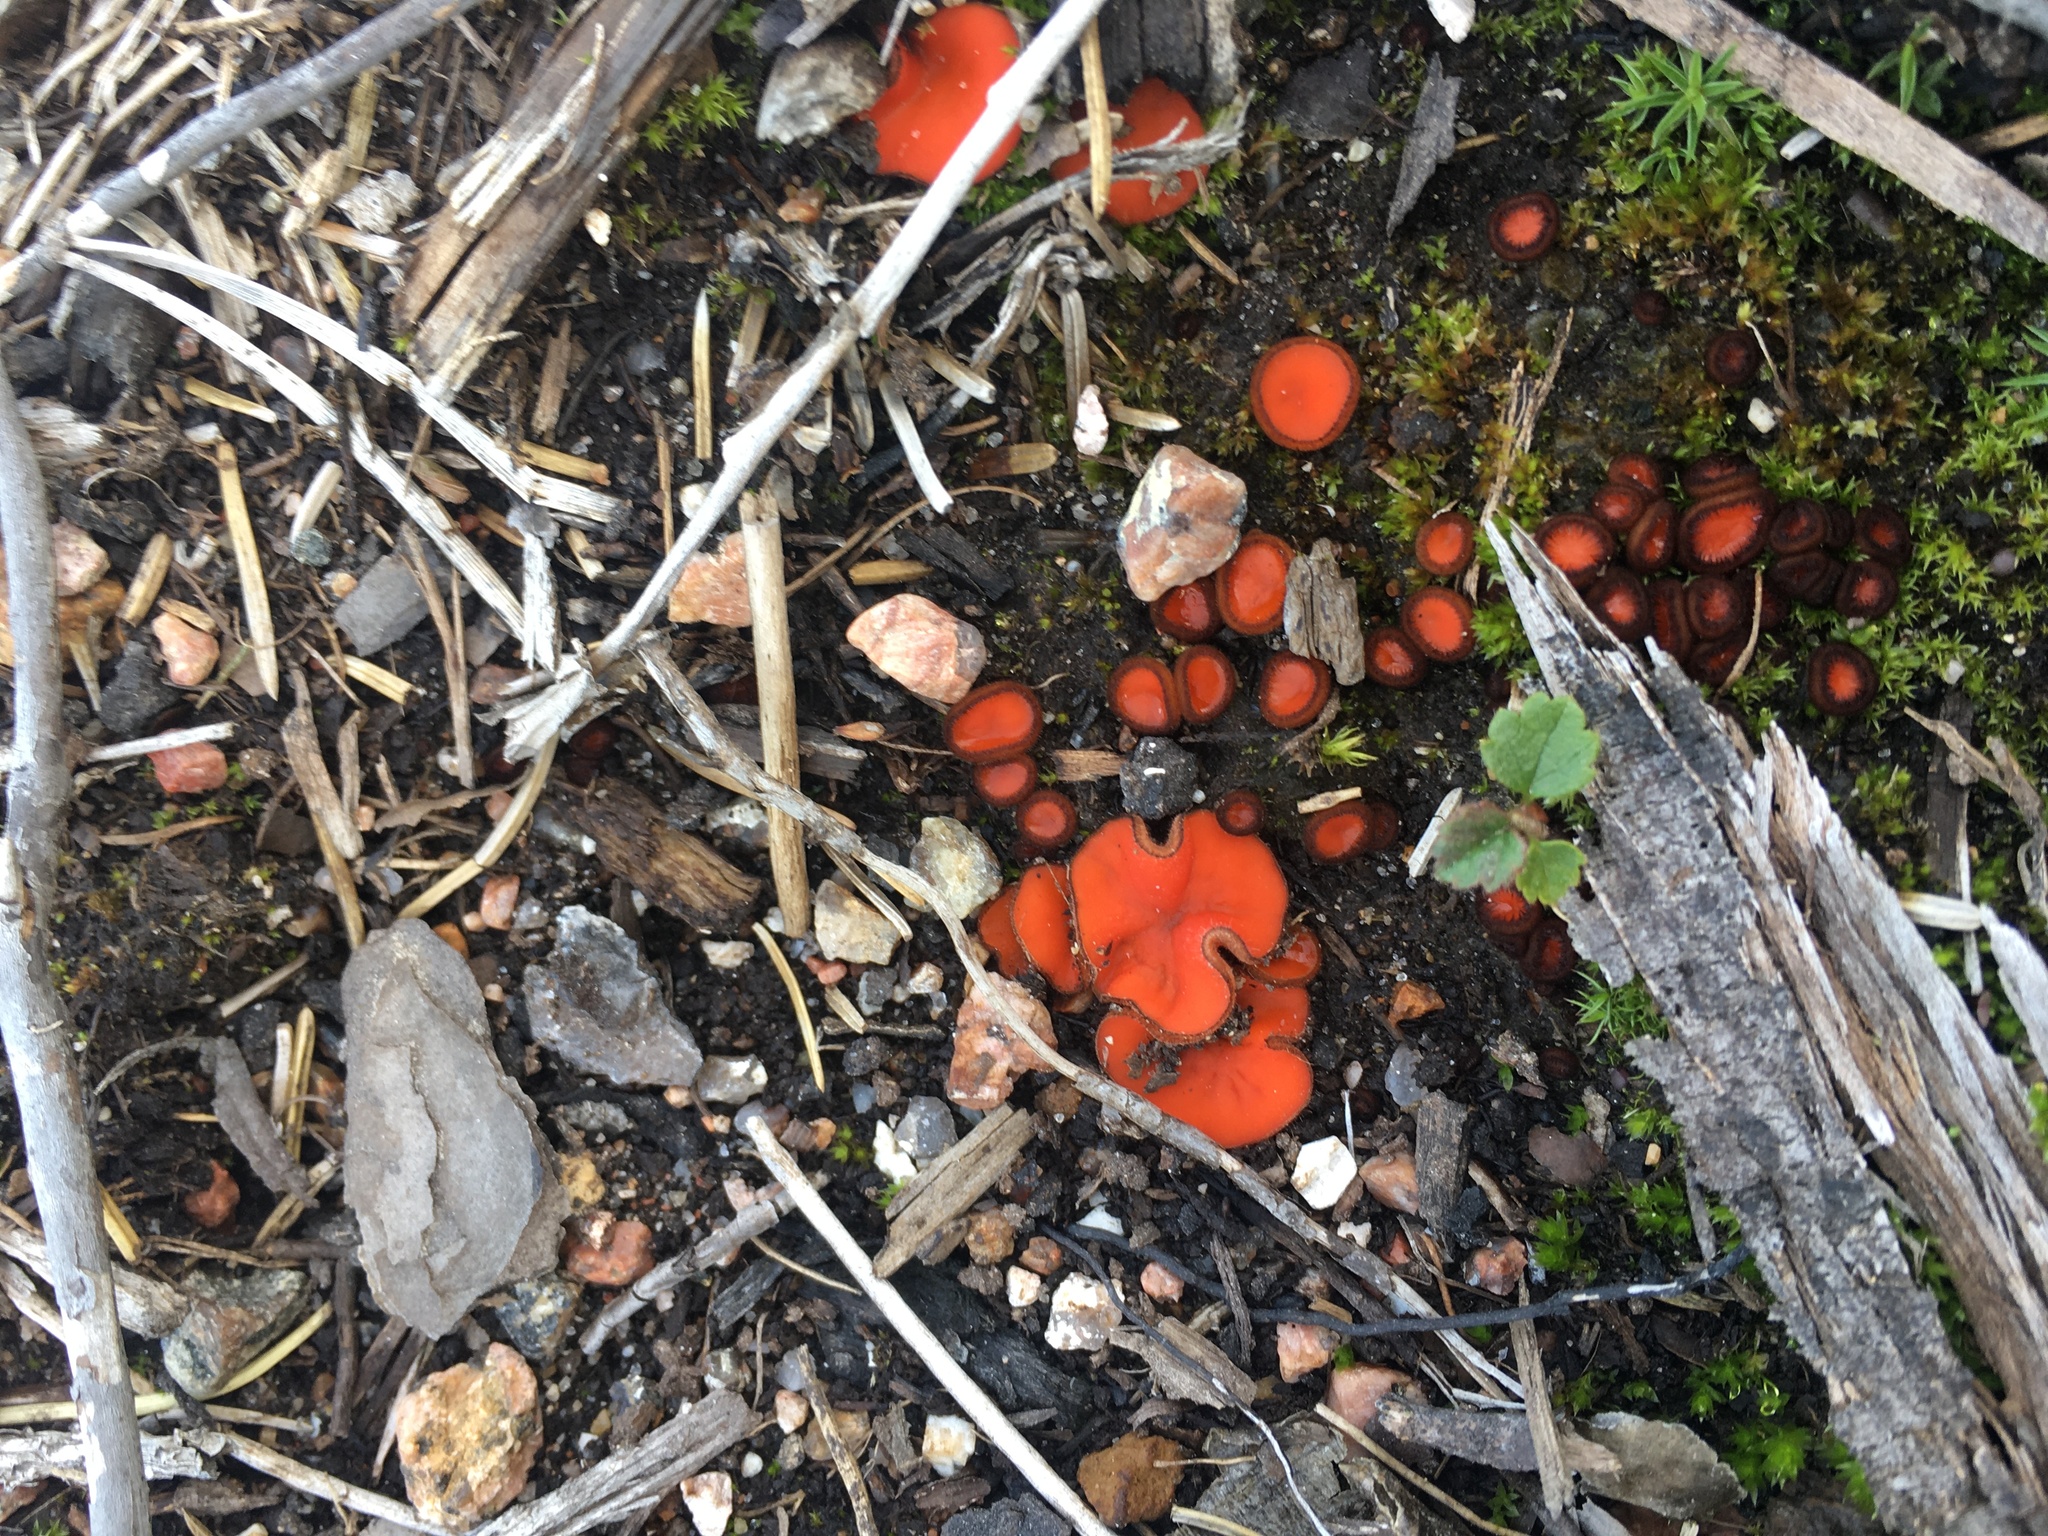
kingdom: Fungi
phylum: Ascomycota
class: Pezizomycetes
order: Pezizales
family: Pyronemataceae
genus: Scutellinia
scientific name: Scutellinia
